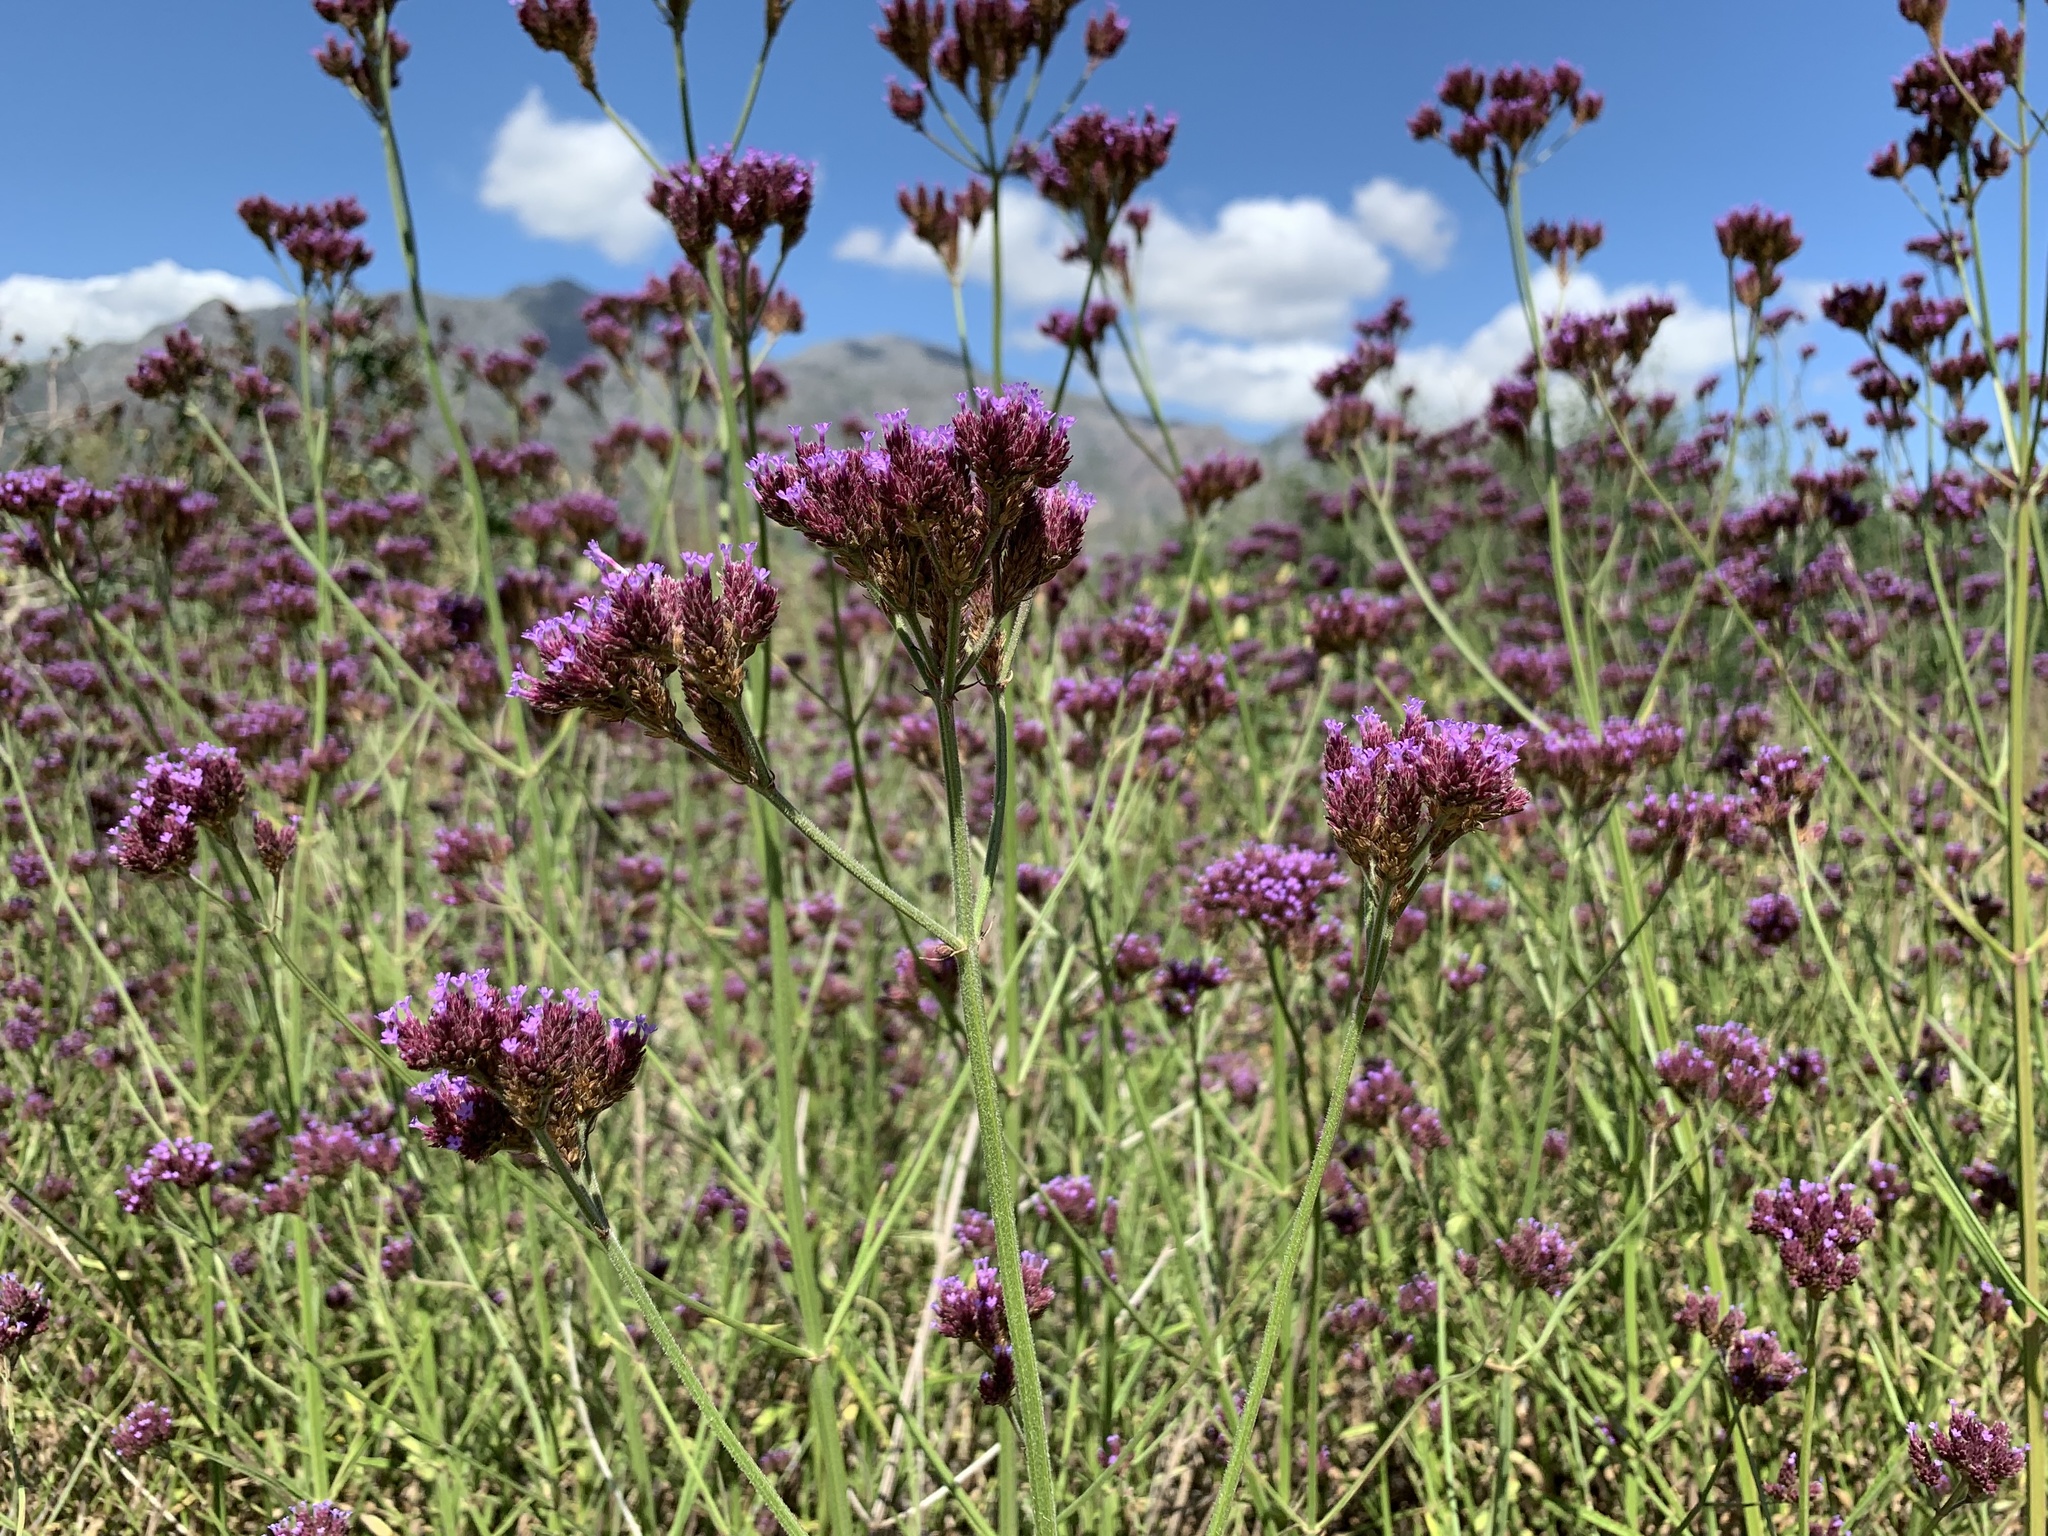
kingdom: Plantae
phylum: Tracheophyta
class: Magnoliopsida
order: Lamiales
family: Verbenaceae
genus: Verbena
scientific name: Verbena bonariensis
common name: Purpletop vervain
